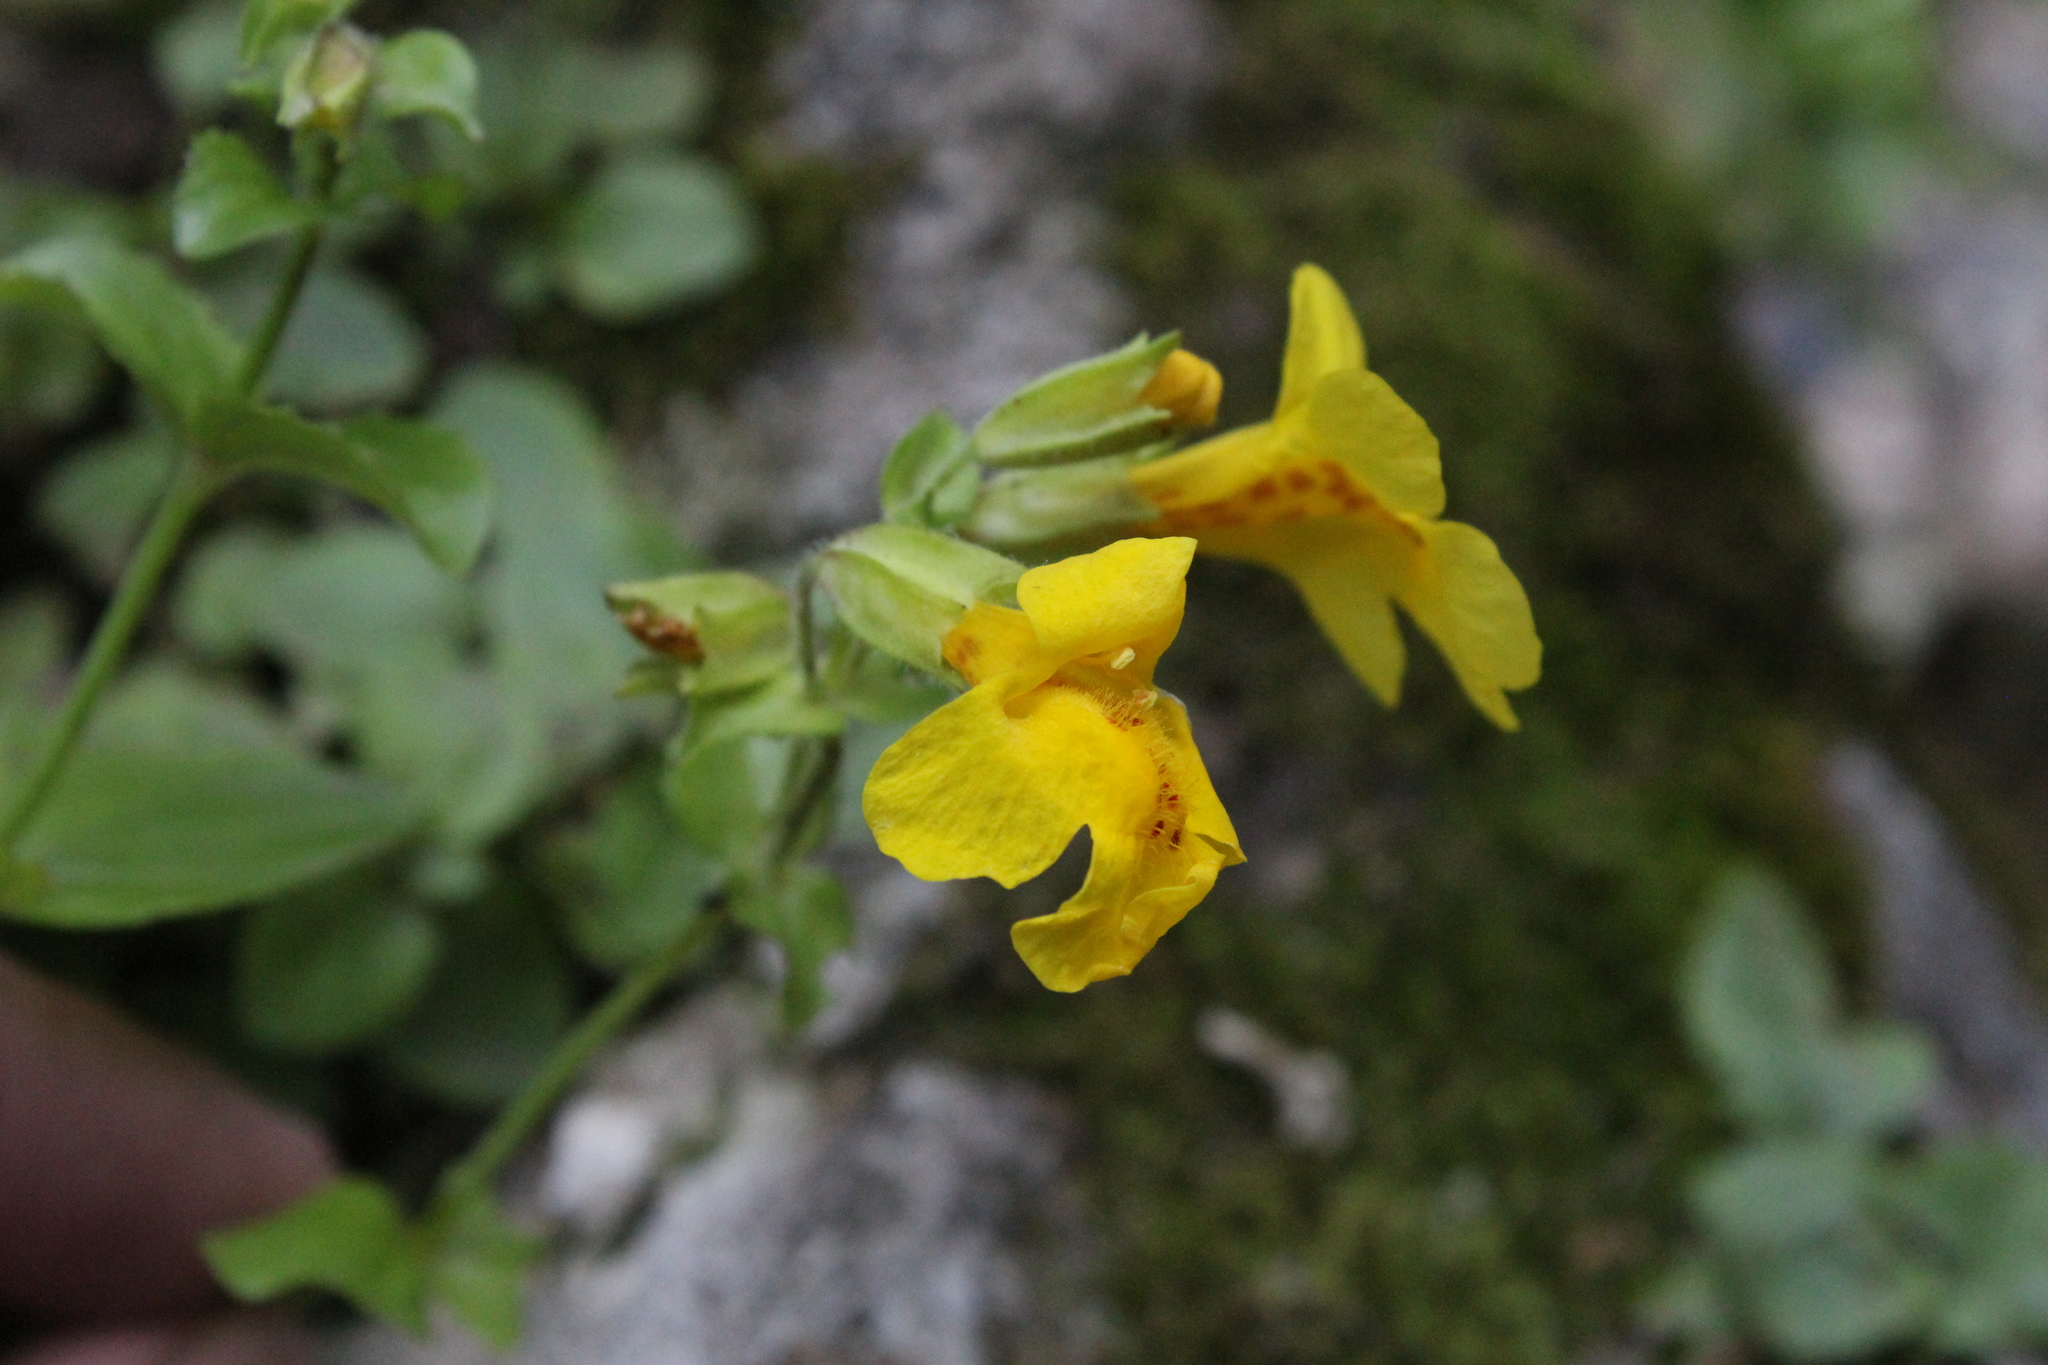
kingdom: Plantae
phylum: Tracheophyta
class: Magnoliopsida
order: Lamiales
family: Phrymaceae
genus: Erythranthe
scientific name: Erythranthe guttata
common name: Monkeyflower
